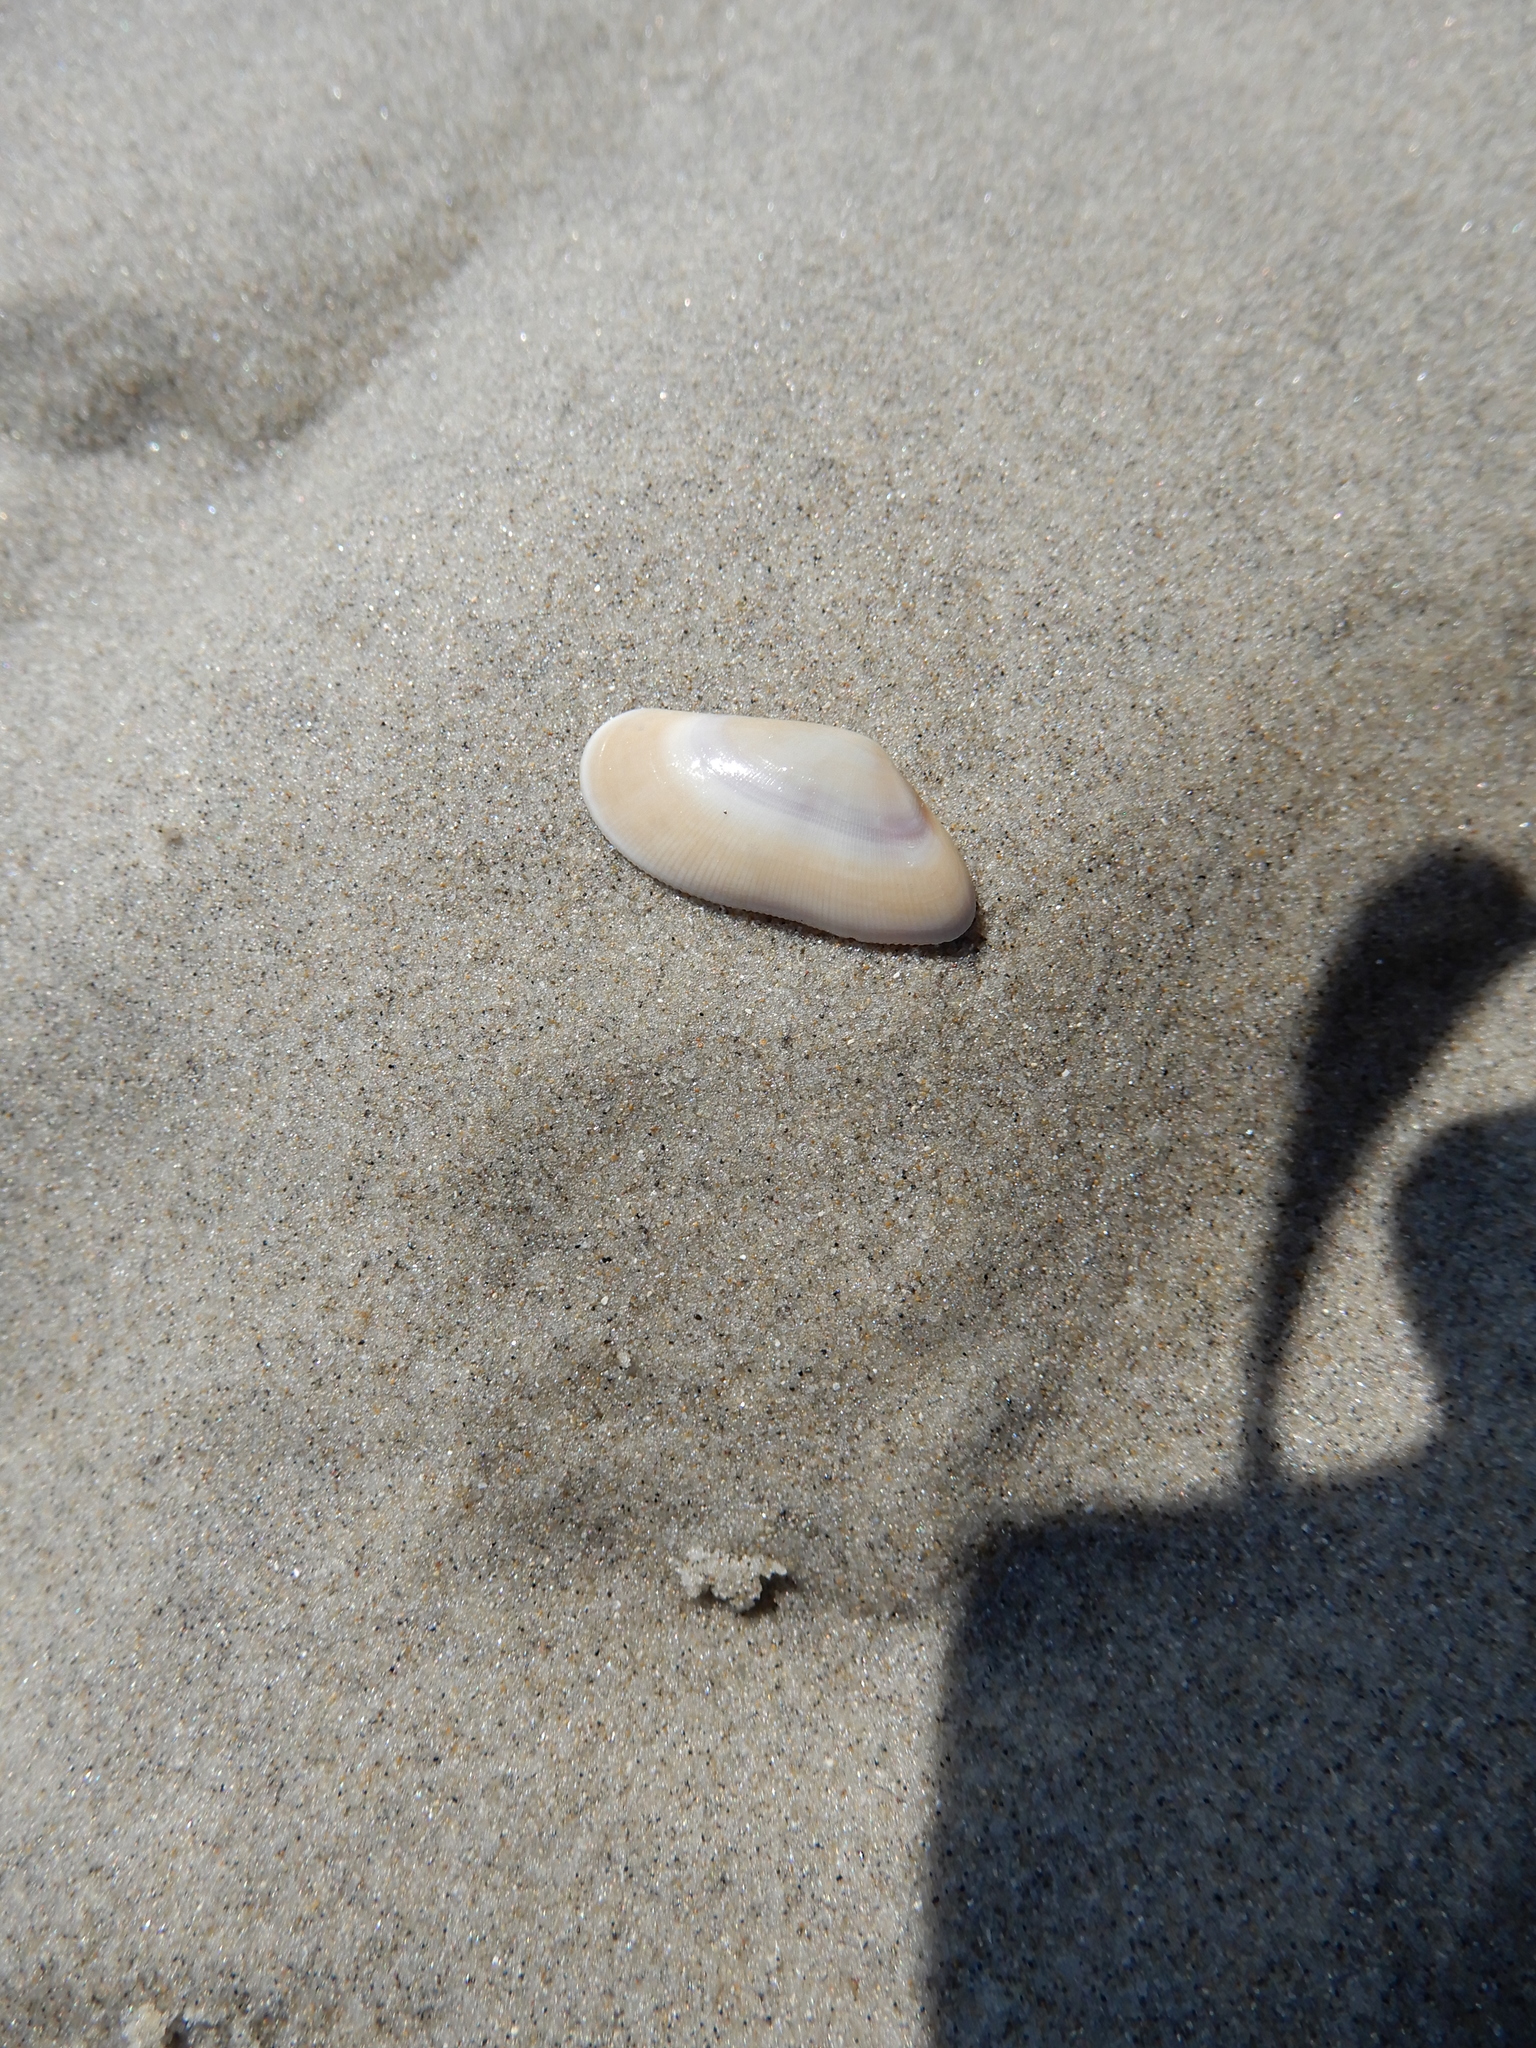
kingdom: Animalia
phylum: Mollusca
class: Bivalvia
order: Cardiida
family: Donacidae
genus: Donax
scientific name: Donax vittatus
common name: Banded wedge-shell
